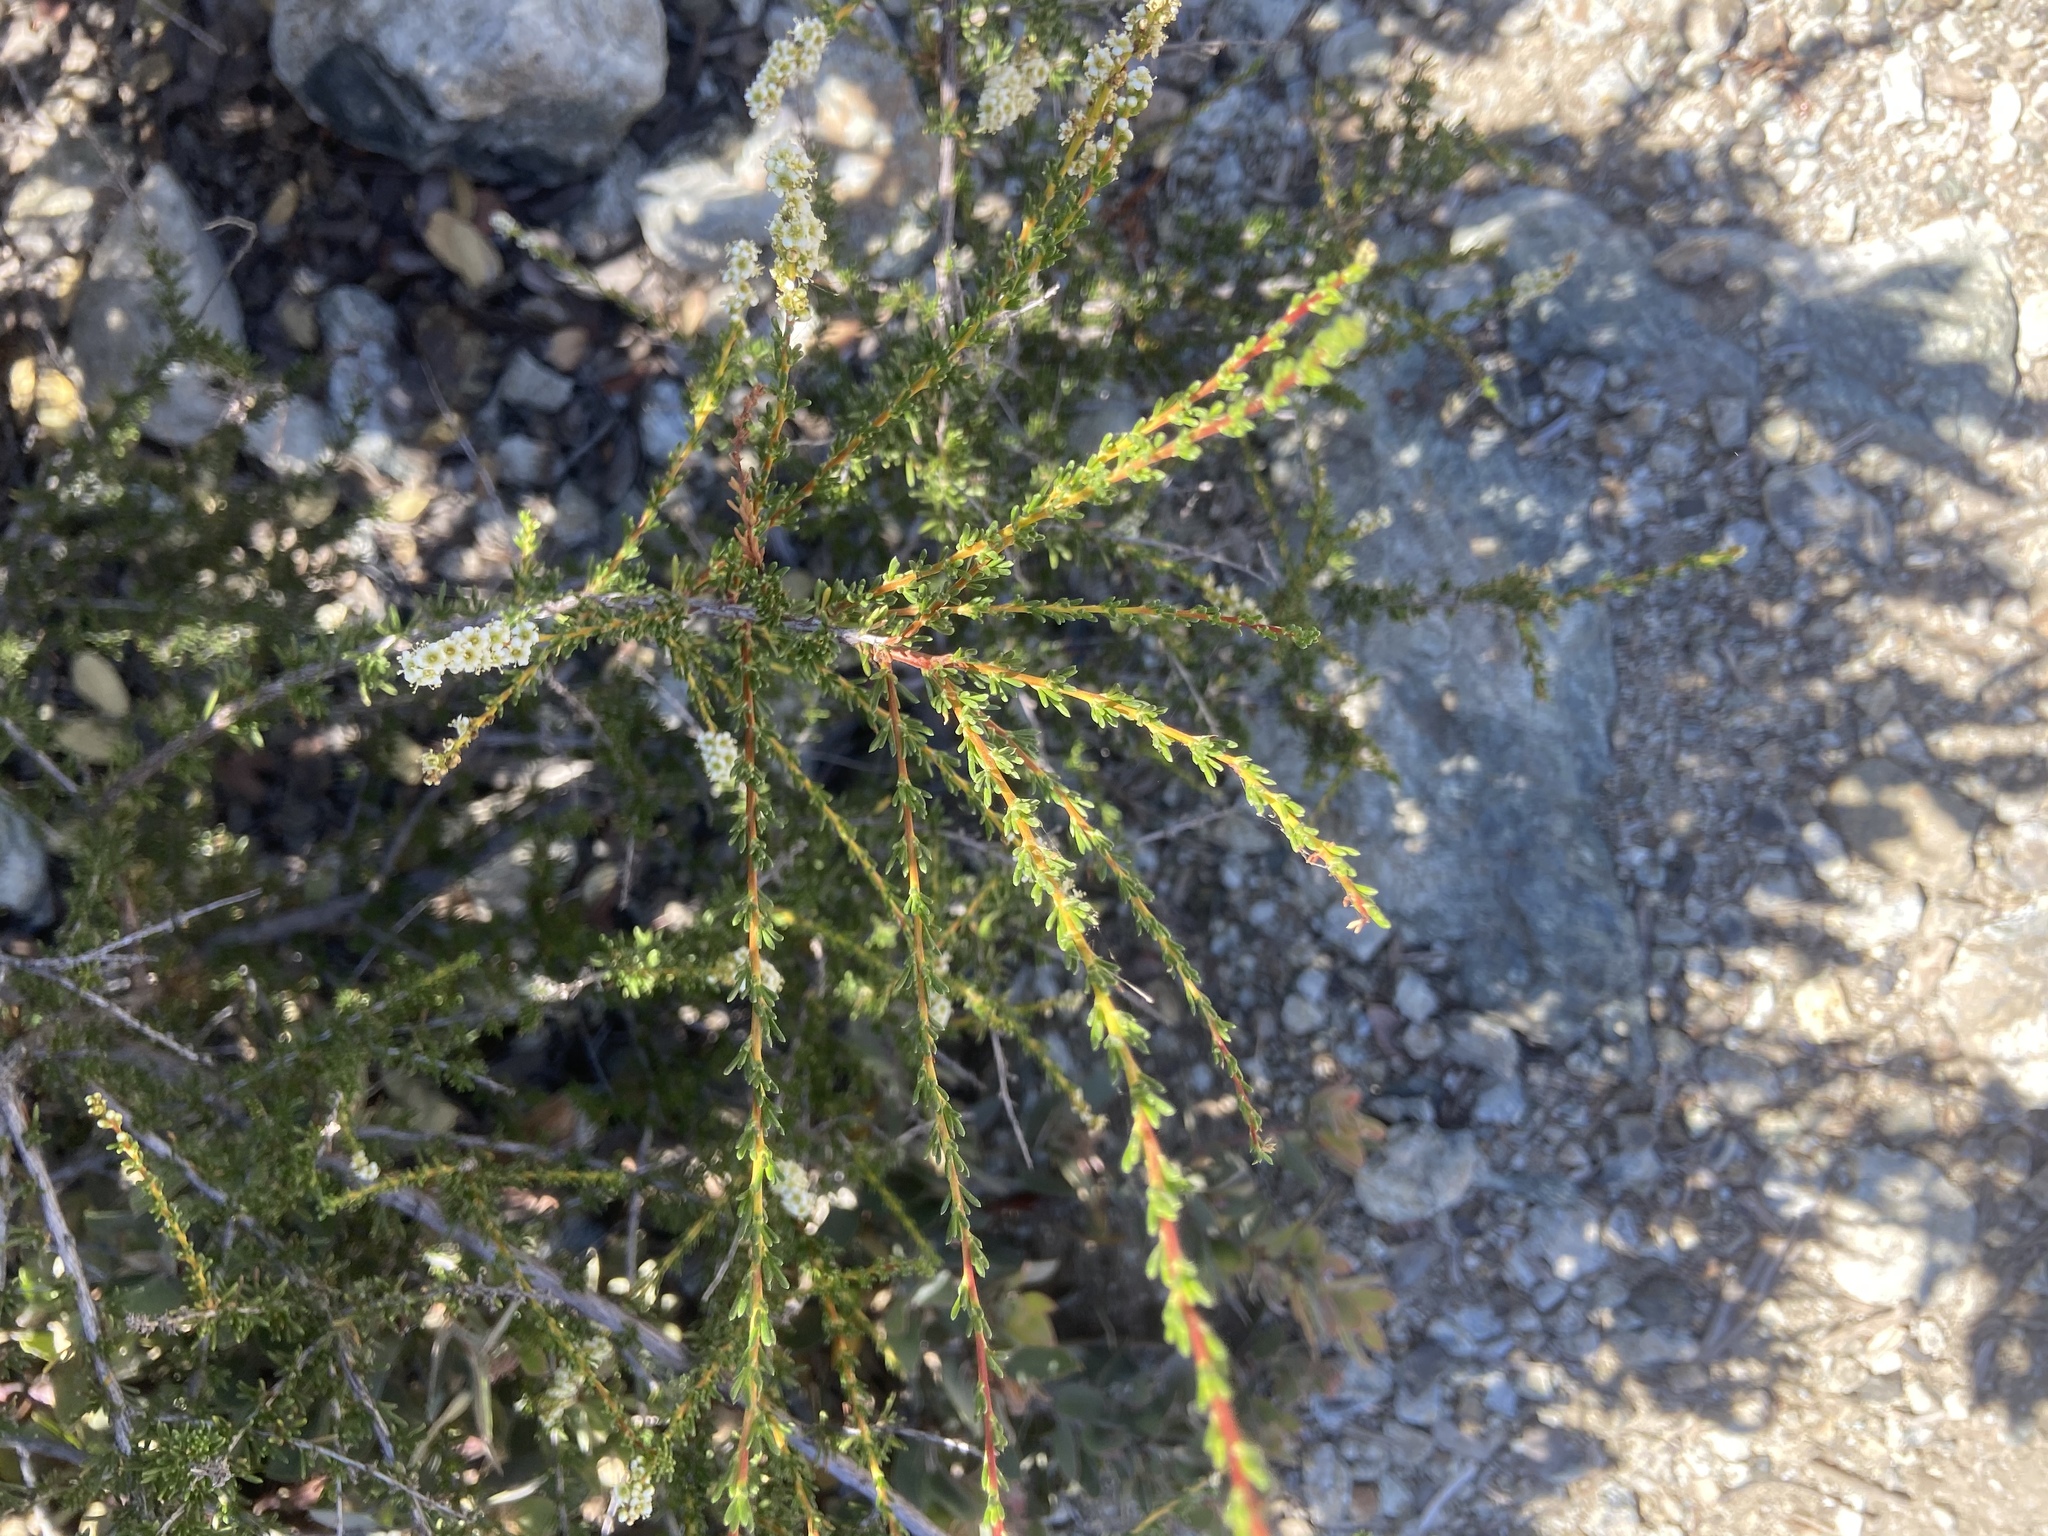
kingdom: Plantae
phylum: Tracheophyta
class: Magnoliopsida
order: Rosales
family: Rosaceae
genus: Adenostoma
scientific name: Adenostoma fasciculatum
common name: Chamise
